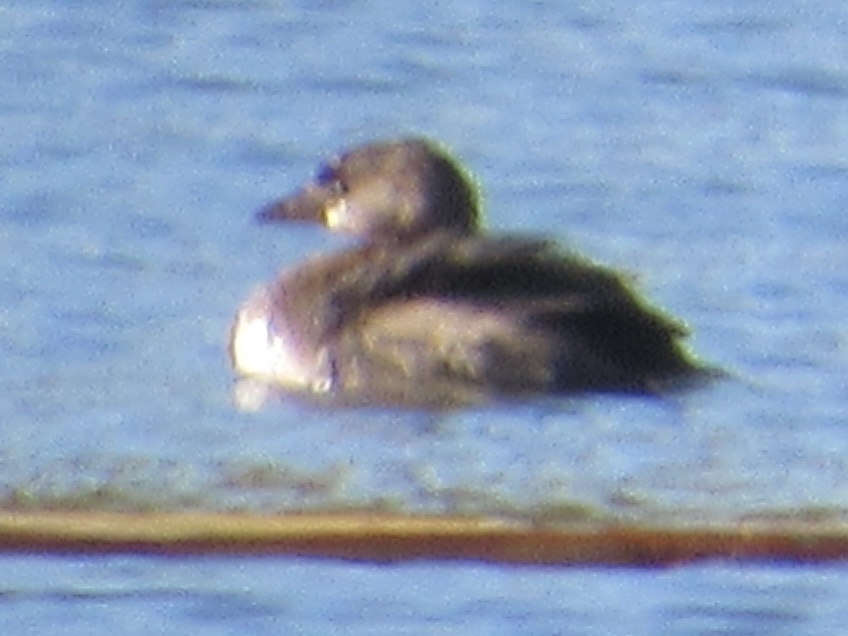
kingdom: Animalia
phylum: Chordata
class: Aves
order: Podicipediformes
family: Podicipedidae
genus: Podilymbus
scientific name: Podilymbus podiceps
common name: Pied-billed grebe
